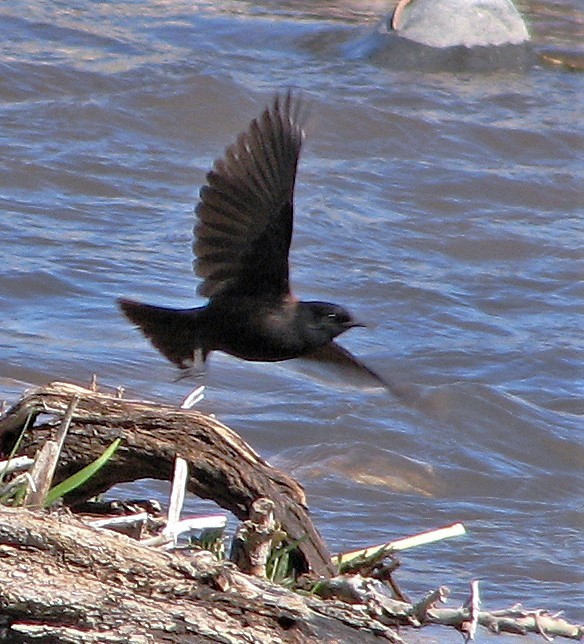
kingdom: Animalia
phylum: Chordata
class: Aves
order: Passeriformes
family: Tyrannidae
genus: Lessonia
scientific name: Lessonia rufa
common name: Austral negrito
